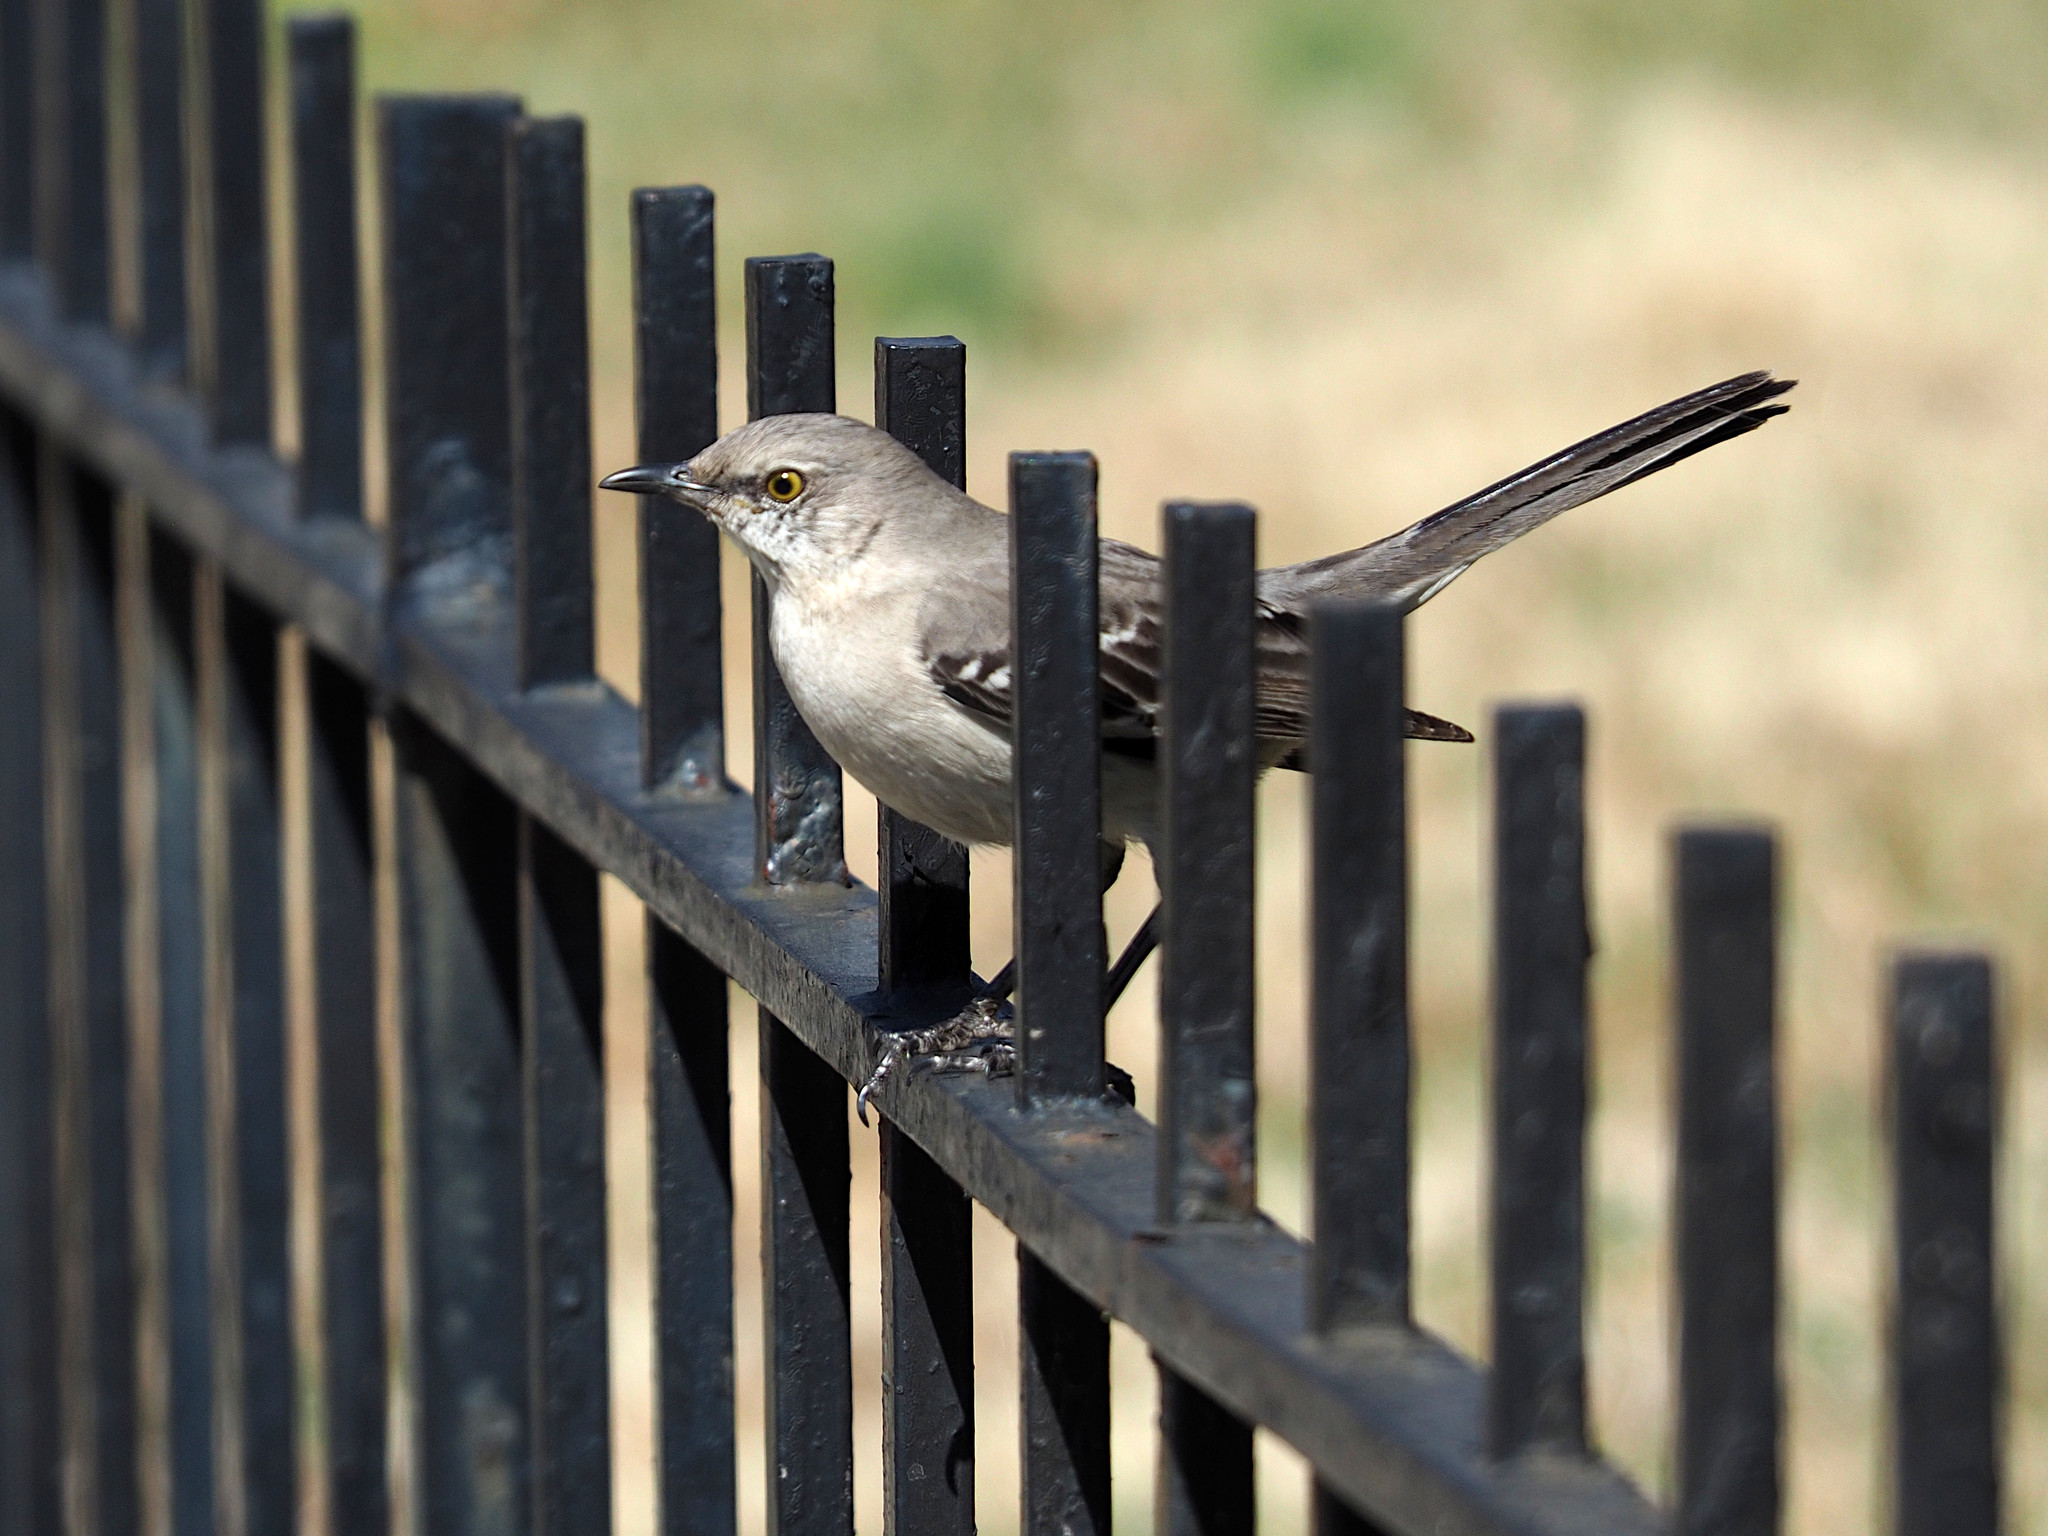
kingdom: Animalia
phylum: Chordata
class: Aves
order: Passeriformes
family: Mimidae
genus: Mimus
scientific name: Mimus polyglottos
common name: Northern mockingbird
